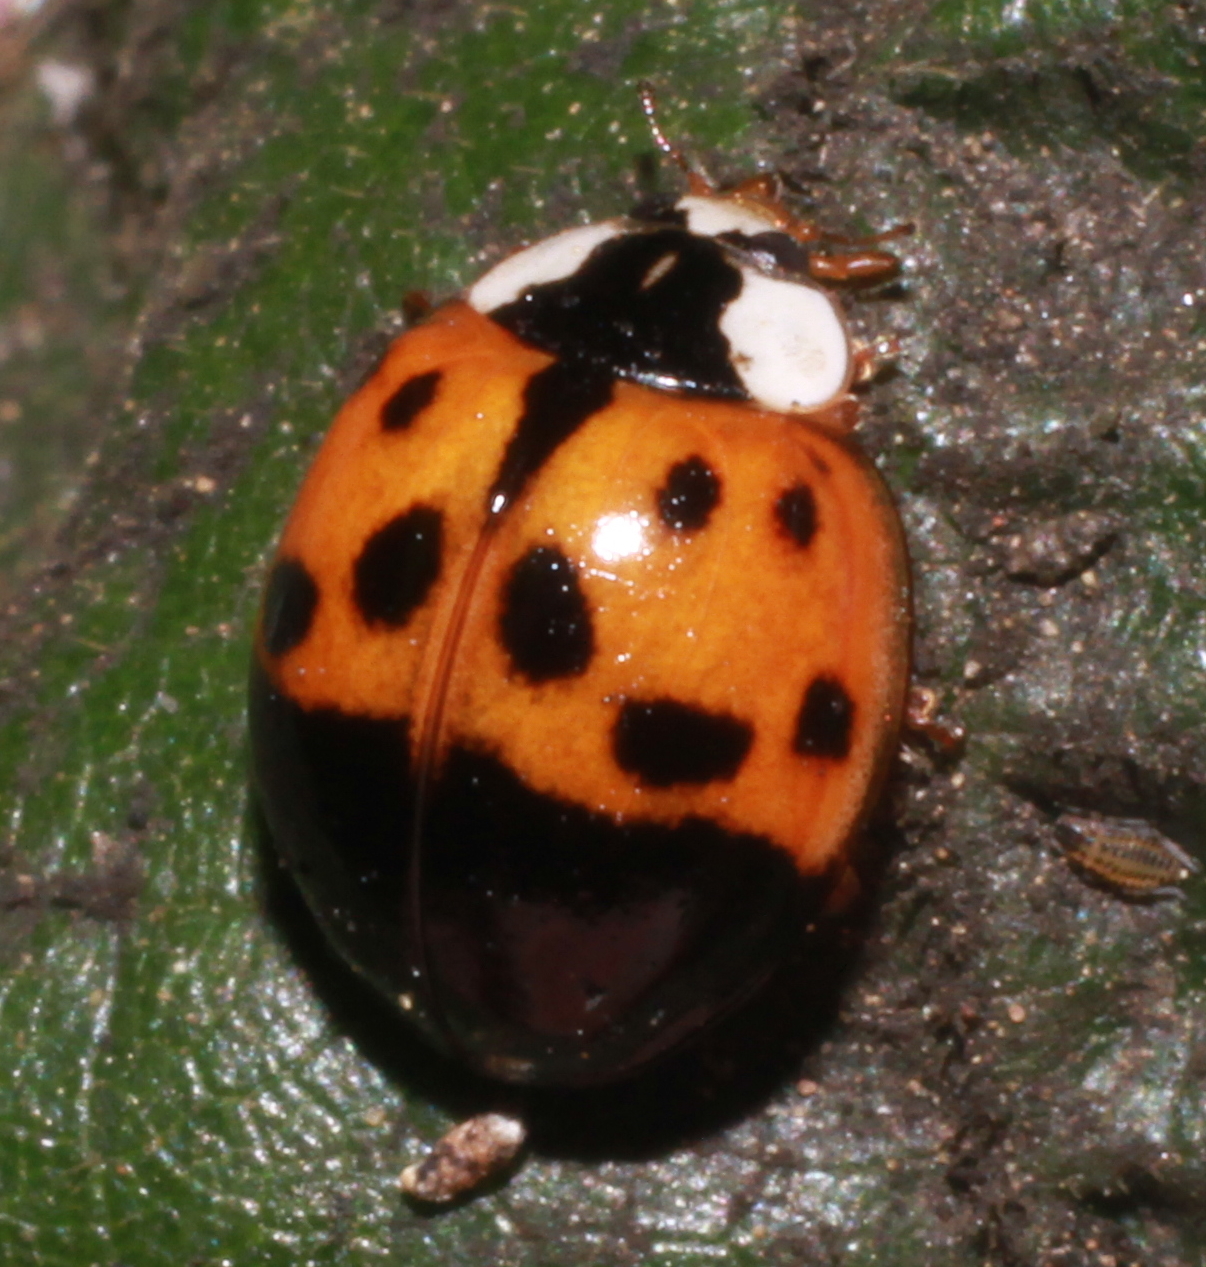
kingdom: Animalia
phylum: Arthropoda
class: Insecta
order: Coleoptera
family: Coccinellidae
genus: Harmonia
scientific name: Harmonia axyridis
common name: Harlequin ladybird
